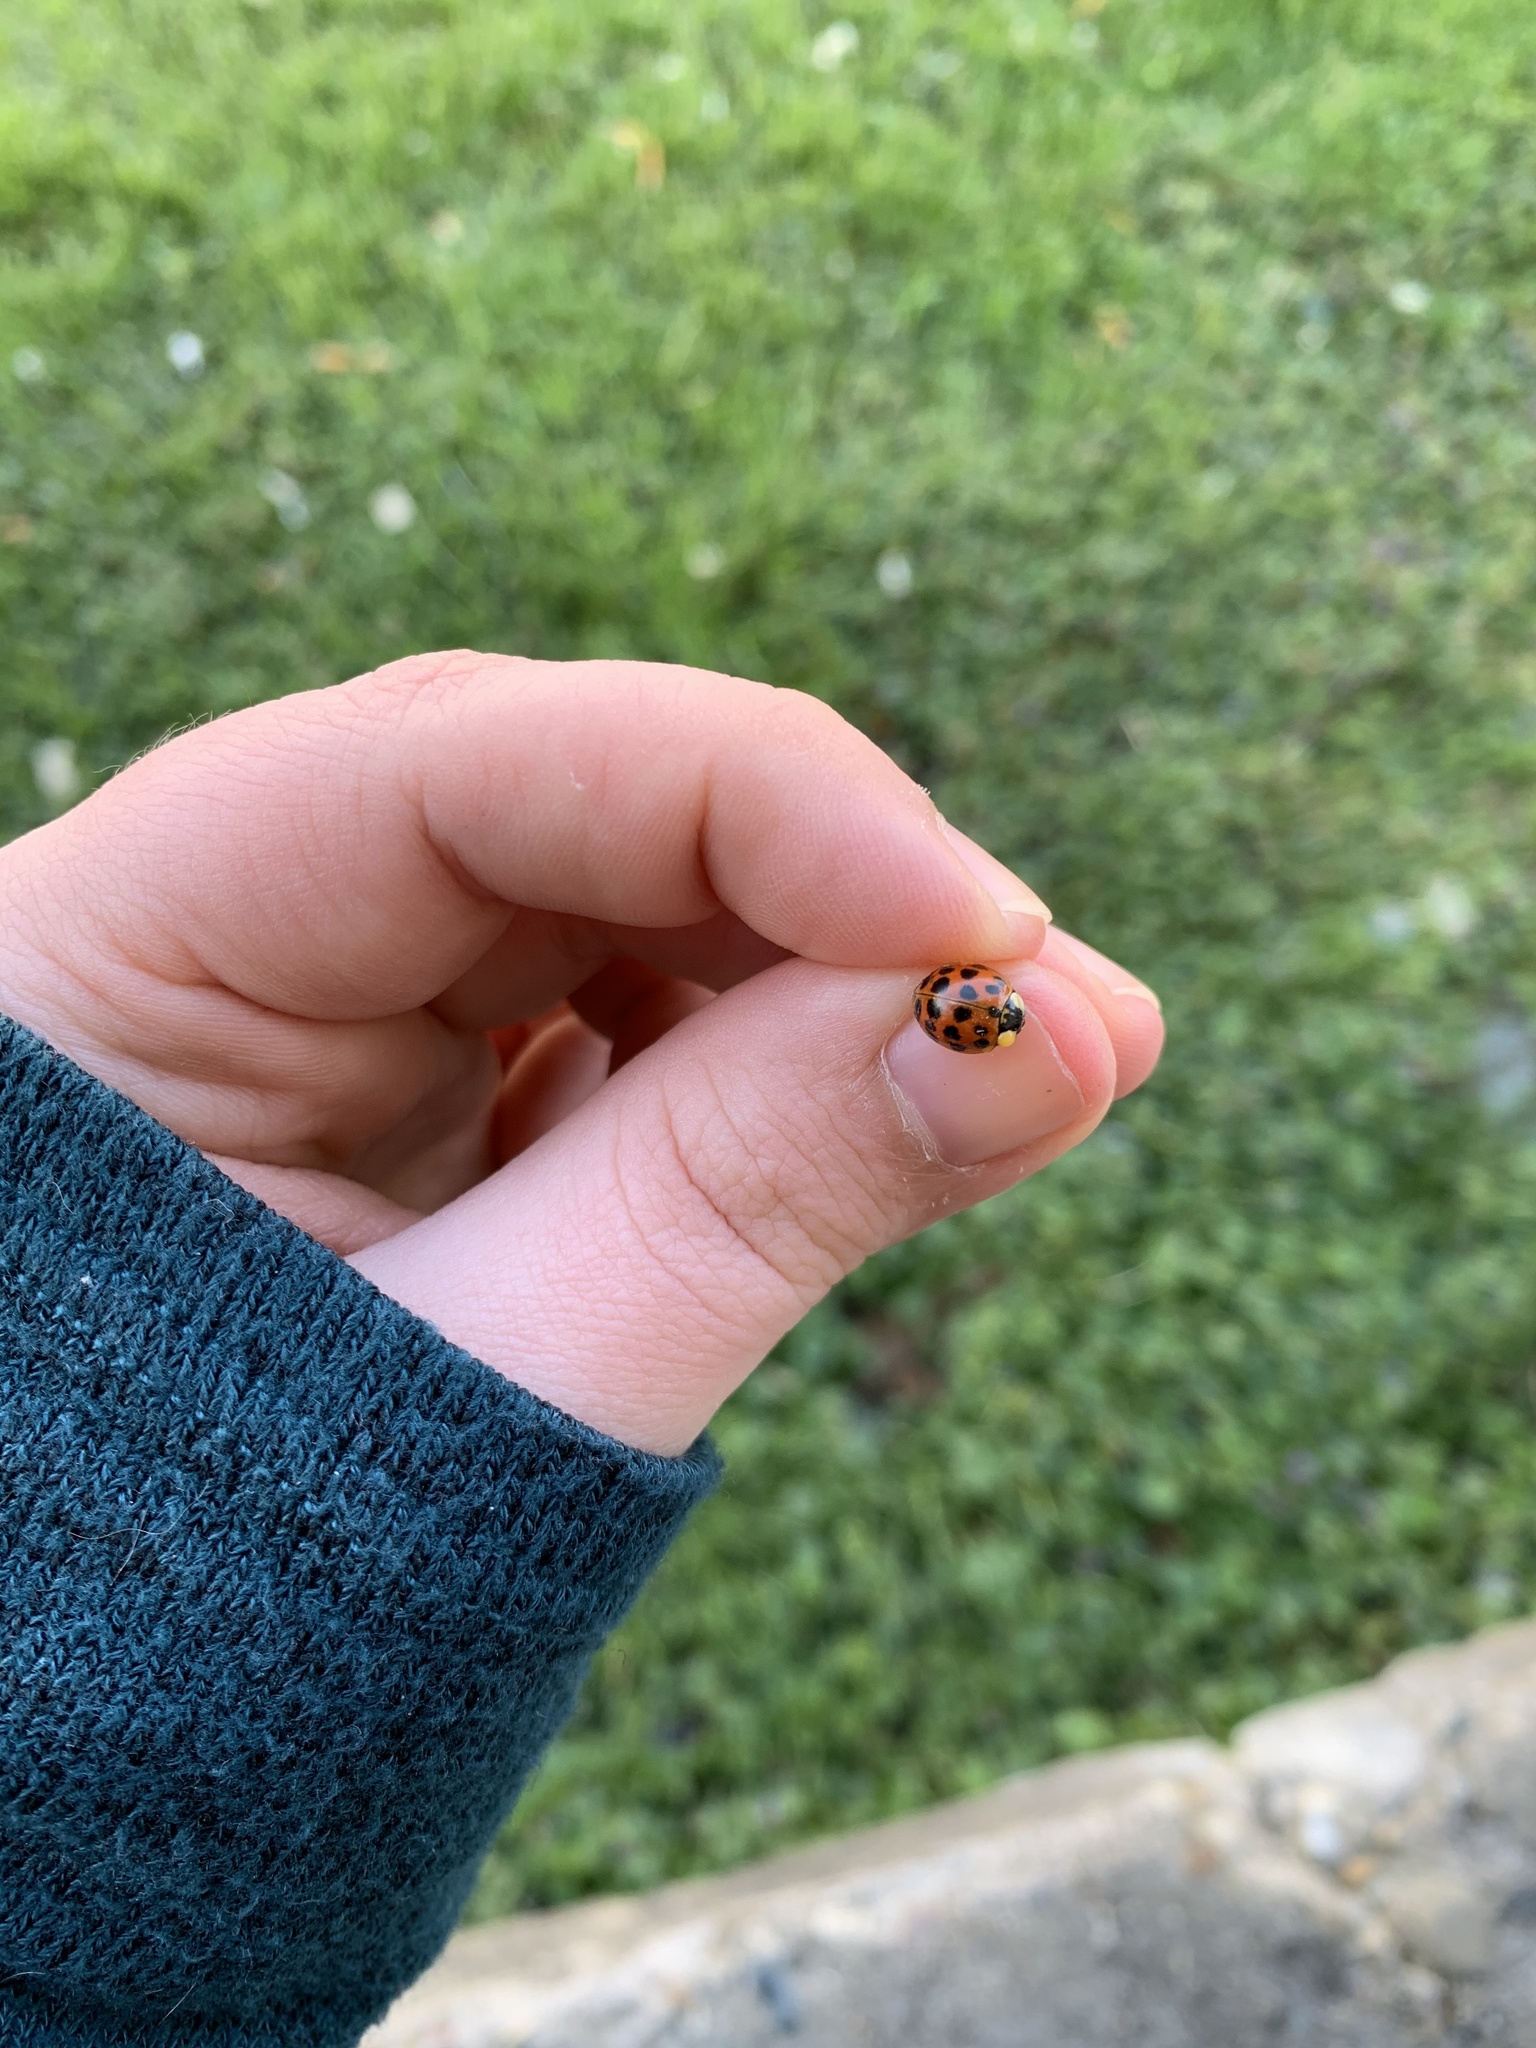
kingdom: Animalia
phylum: Arthropoda
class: Insecta
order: Coleoptera
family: Coccinellidae
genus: Harmonia
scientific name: Harmonia axyridis
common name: Harlequin ladybird
